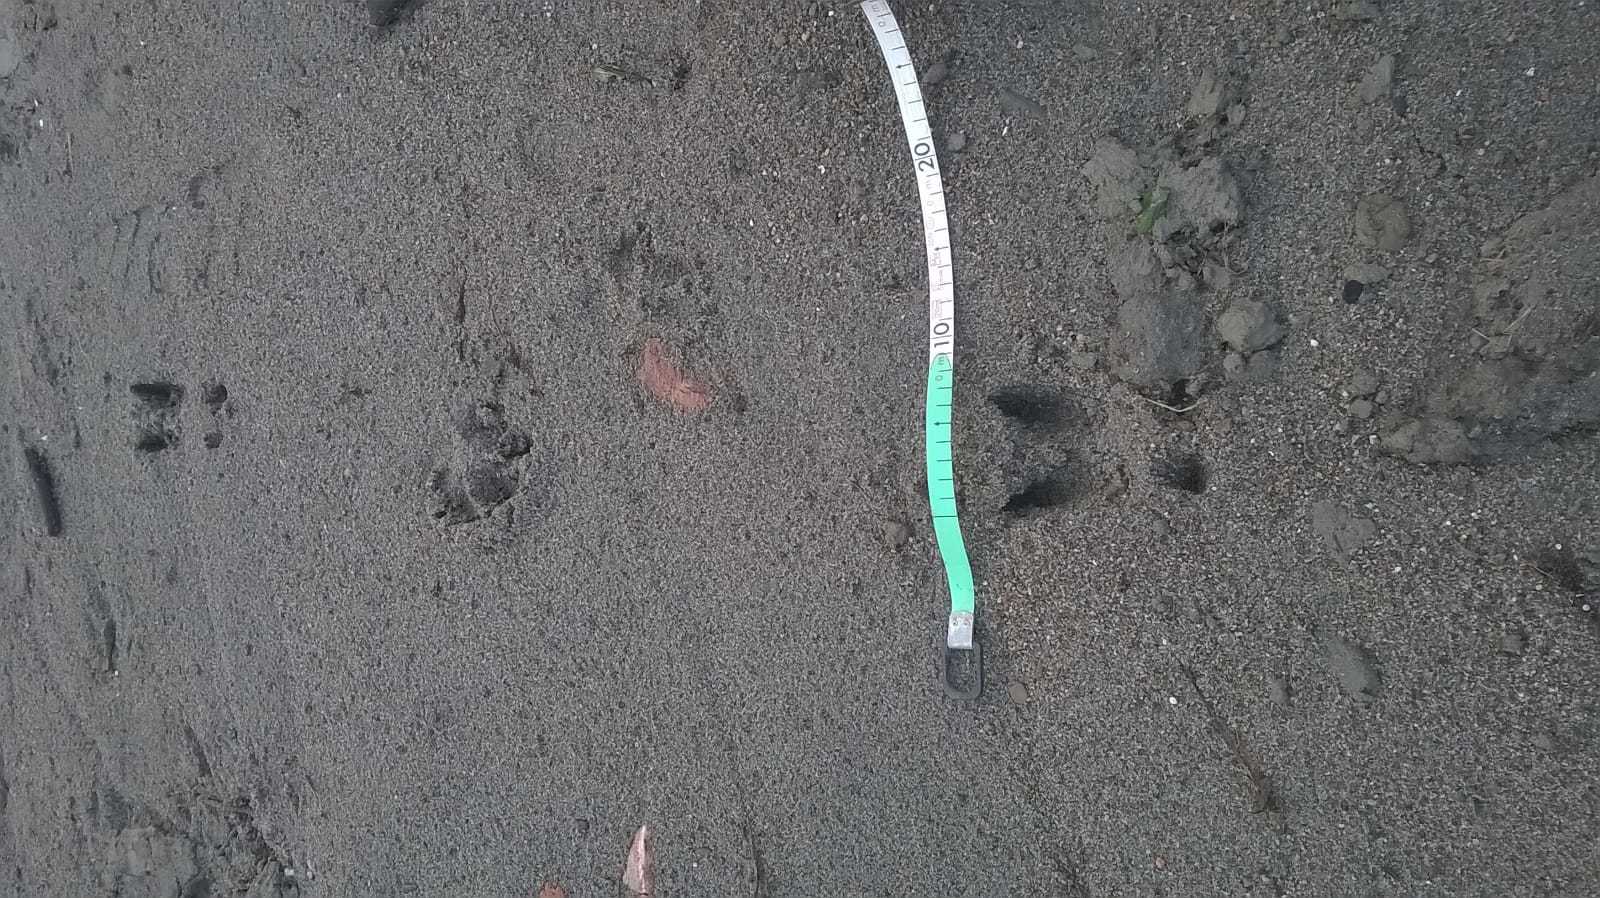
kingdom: Animalia
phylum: Chordata
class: Mammalia
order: Artiodactyla
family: Suidae
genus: Sus
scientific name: Sus scrofa
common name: Wild boar
